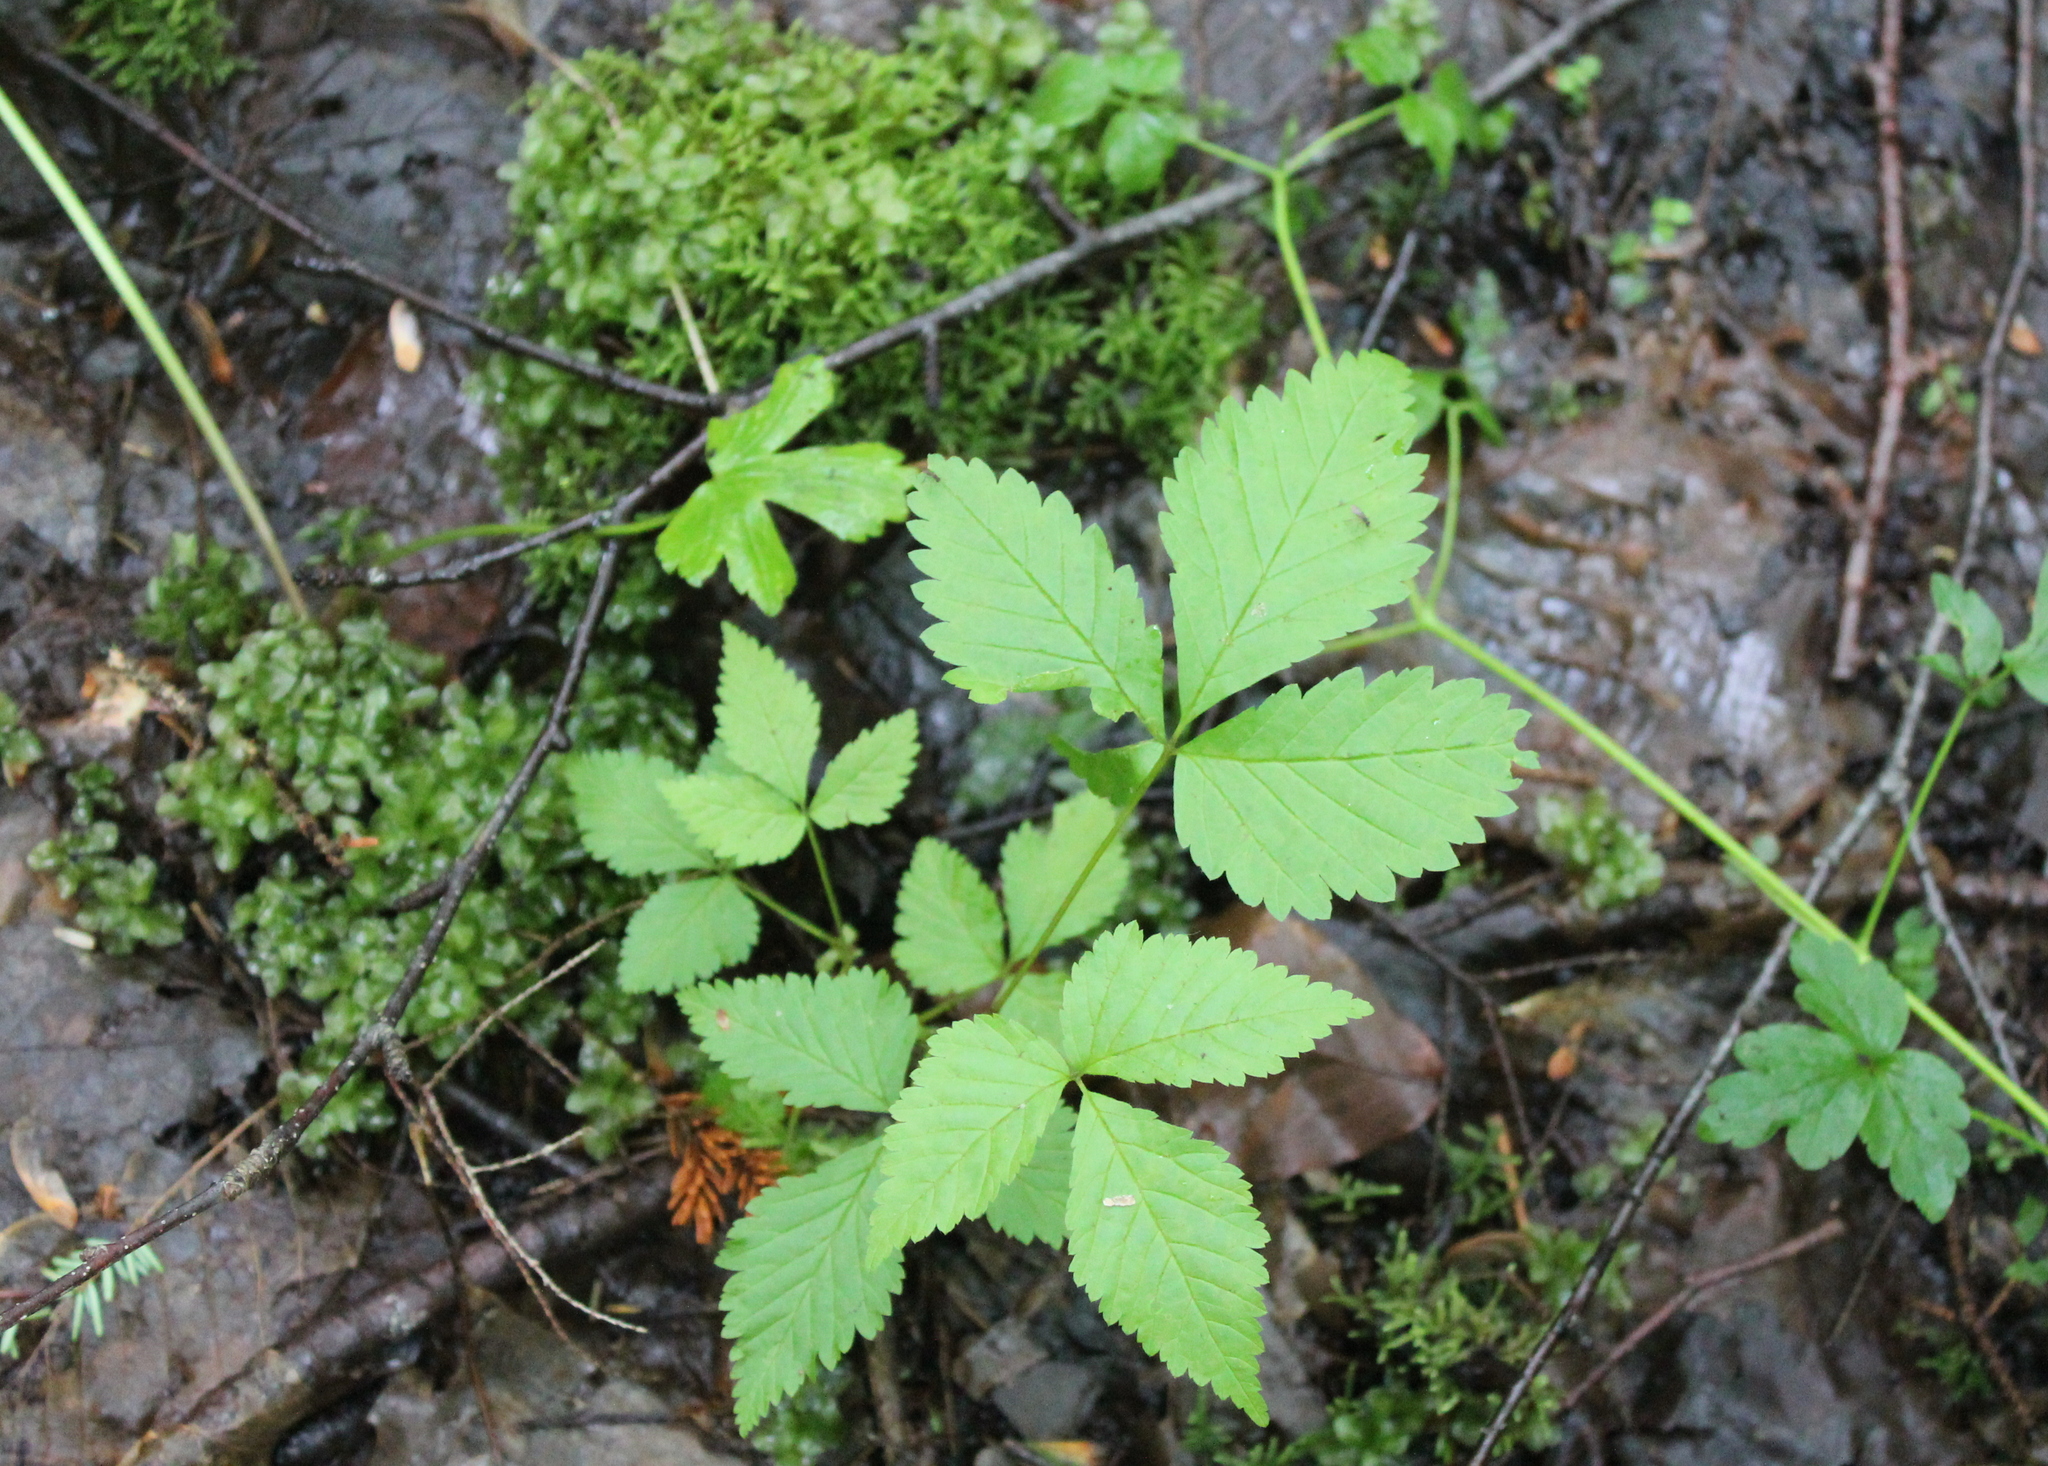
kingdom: Plantae
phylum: Tracheophyta
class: Magnoliopsida
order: Rosales
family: Rosaceae
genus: Rubus
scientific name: Rubus pubescens
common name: Dwarf raspberry
